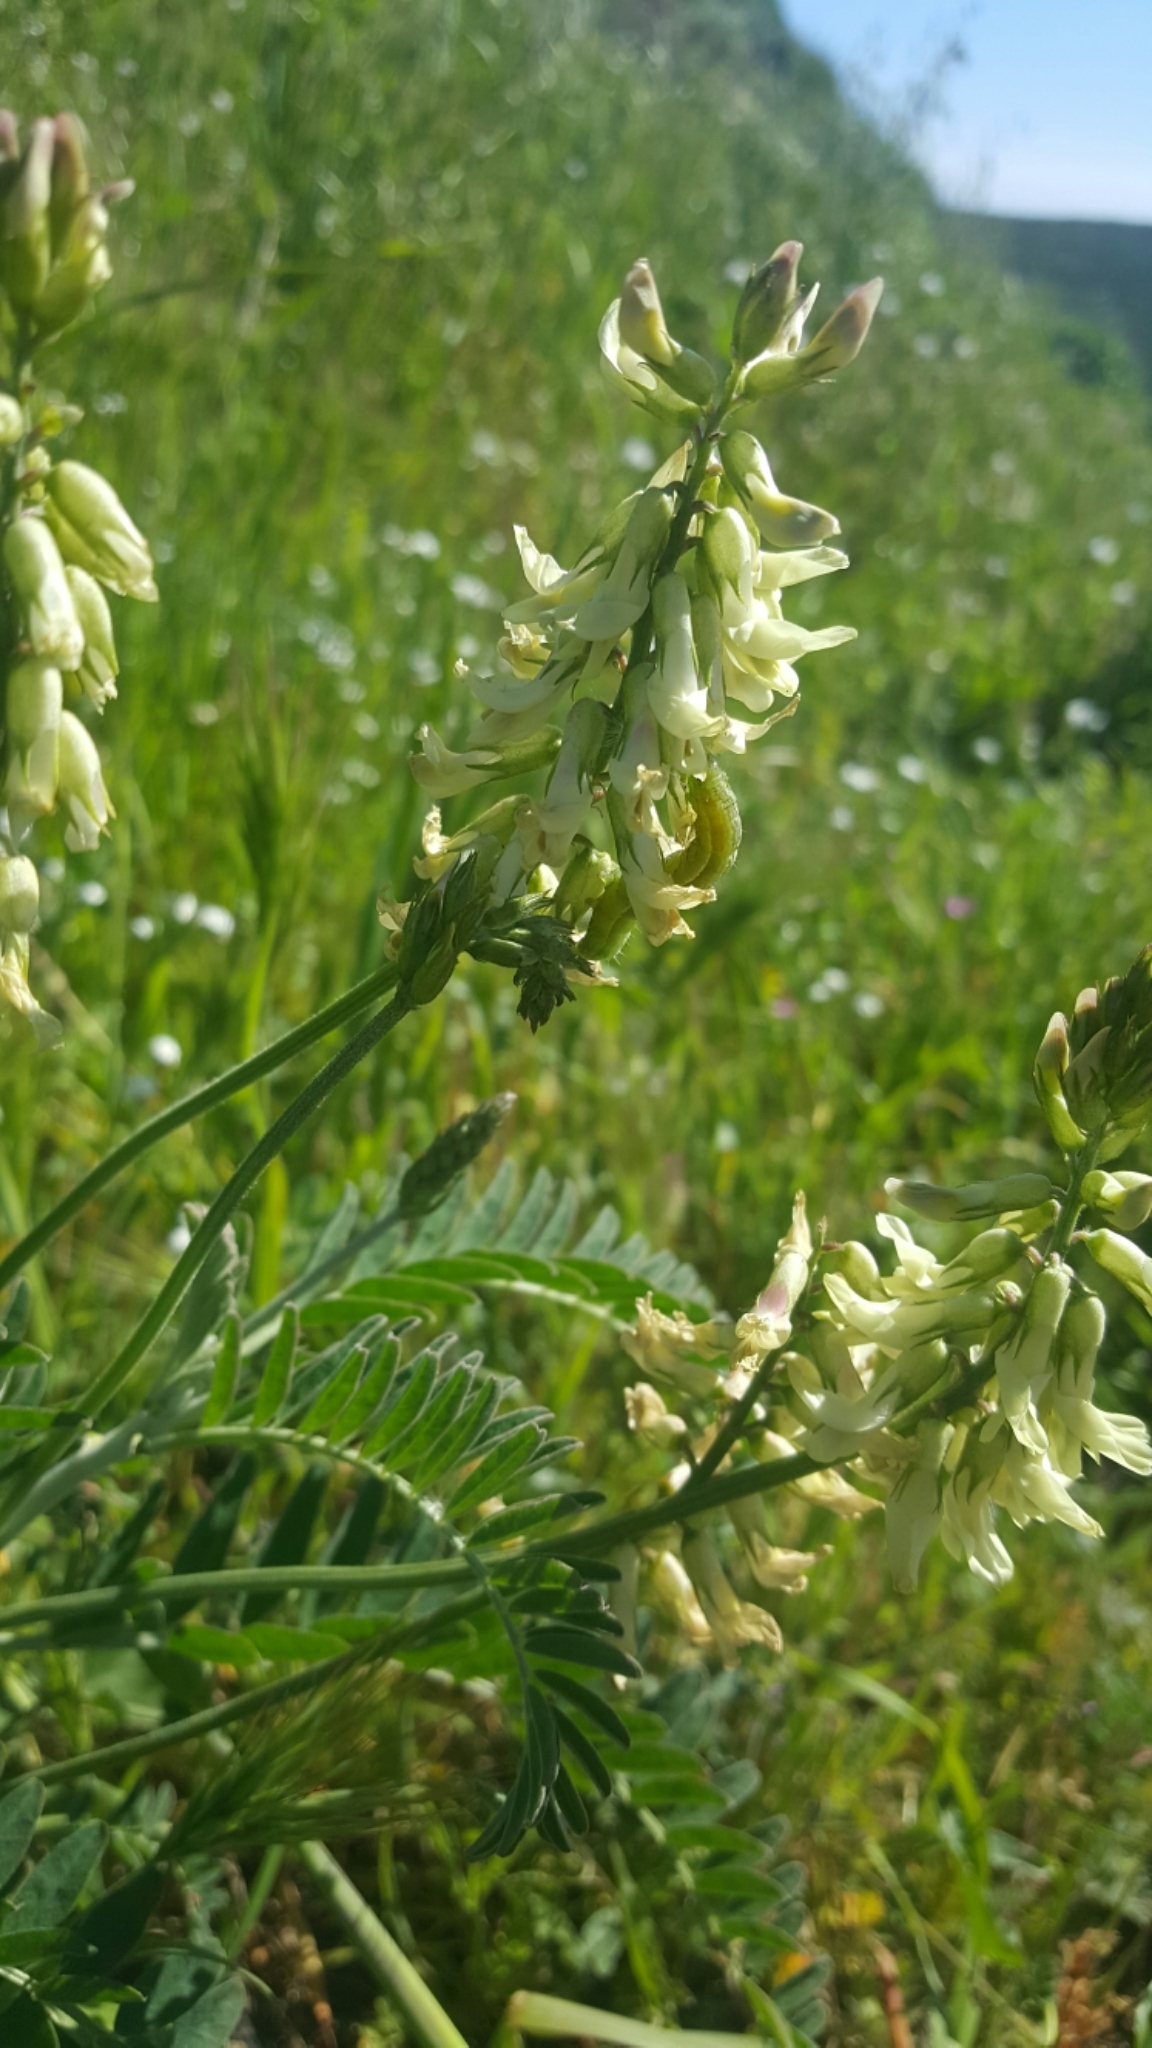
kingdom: Plantae
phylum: Tracheophyta
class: Magnoliopsida
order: Fabales
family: Fabaceae
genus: Astragalus
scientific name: Astragalus trichopodus
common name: Santa barbara milk-vetch
